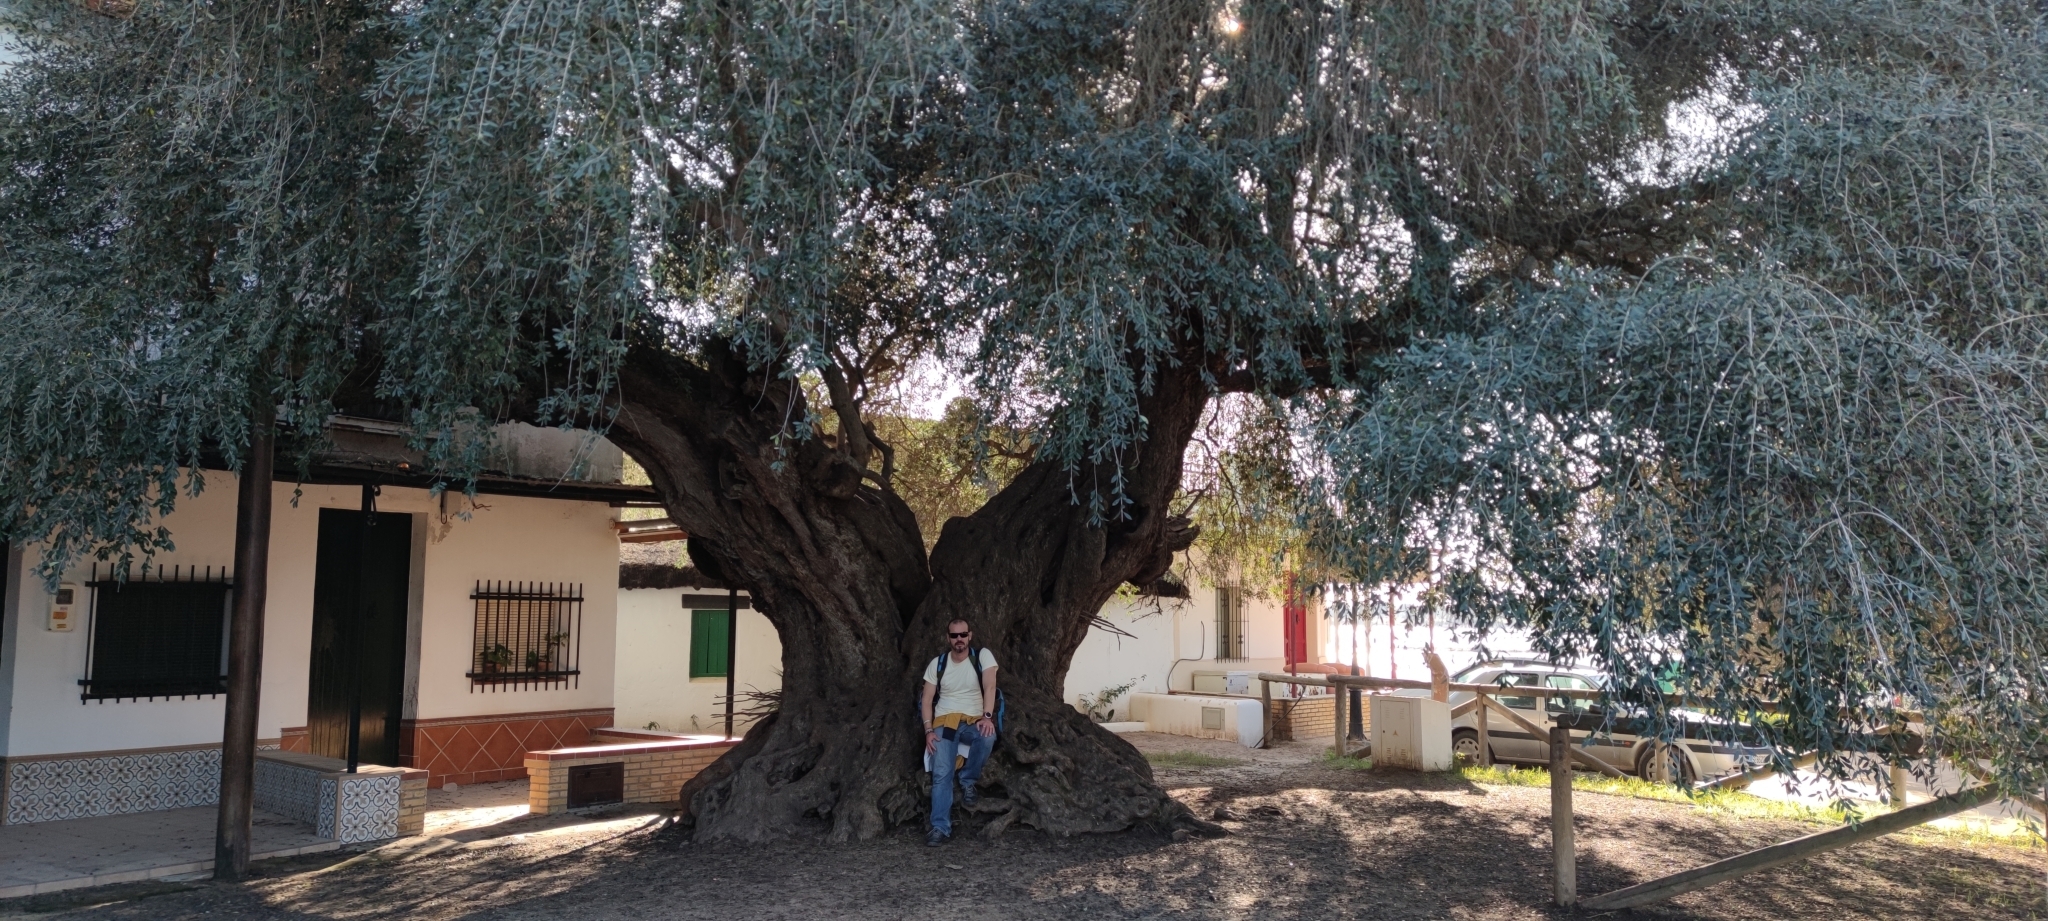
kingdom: Plantae
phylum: Tracheophyta
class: Magnoliopsida
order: Lamiales
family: Oleaceae
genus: Olea
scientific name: Olea europaea
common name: Olive
